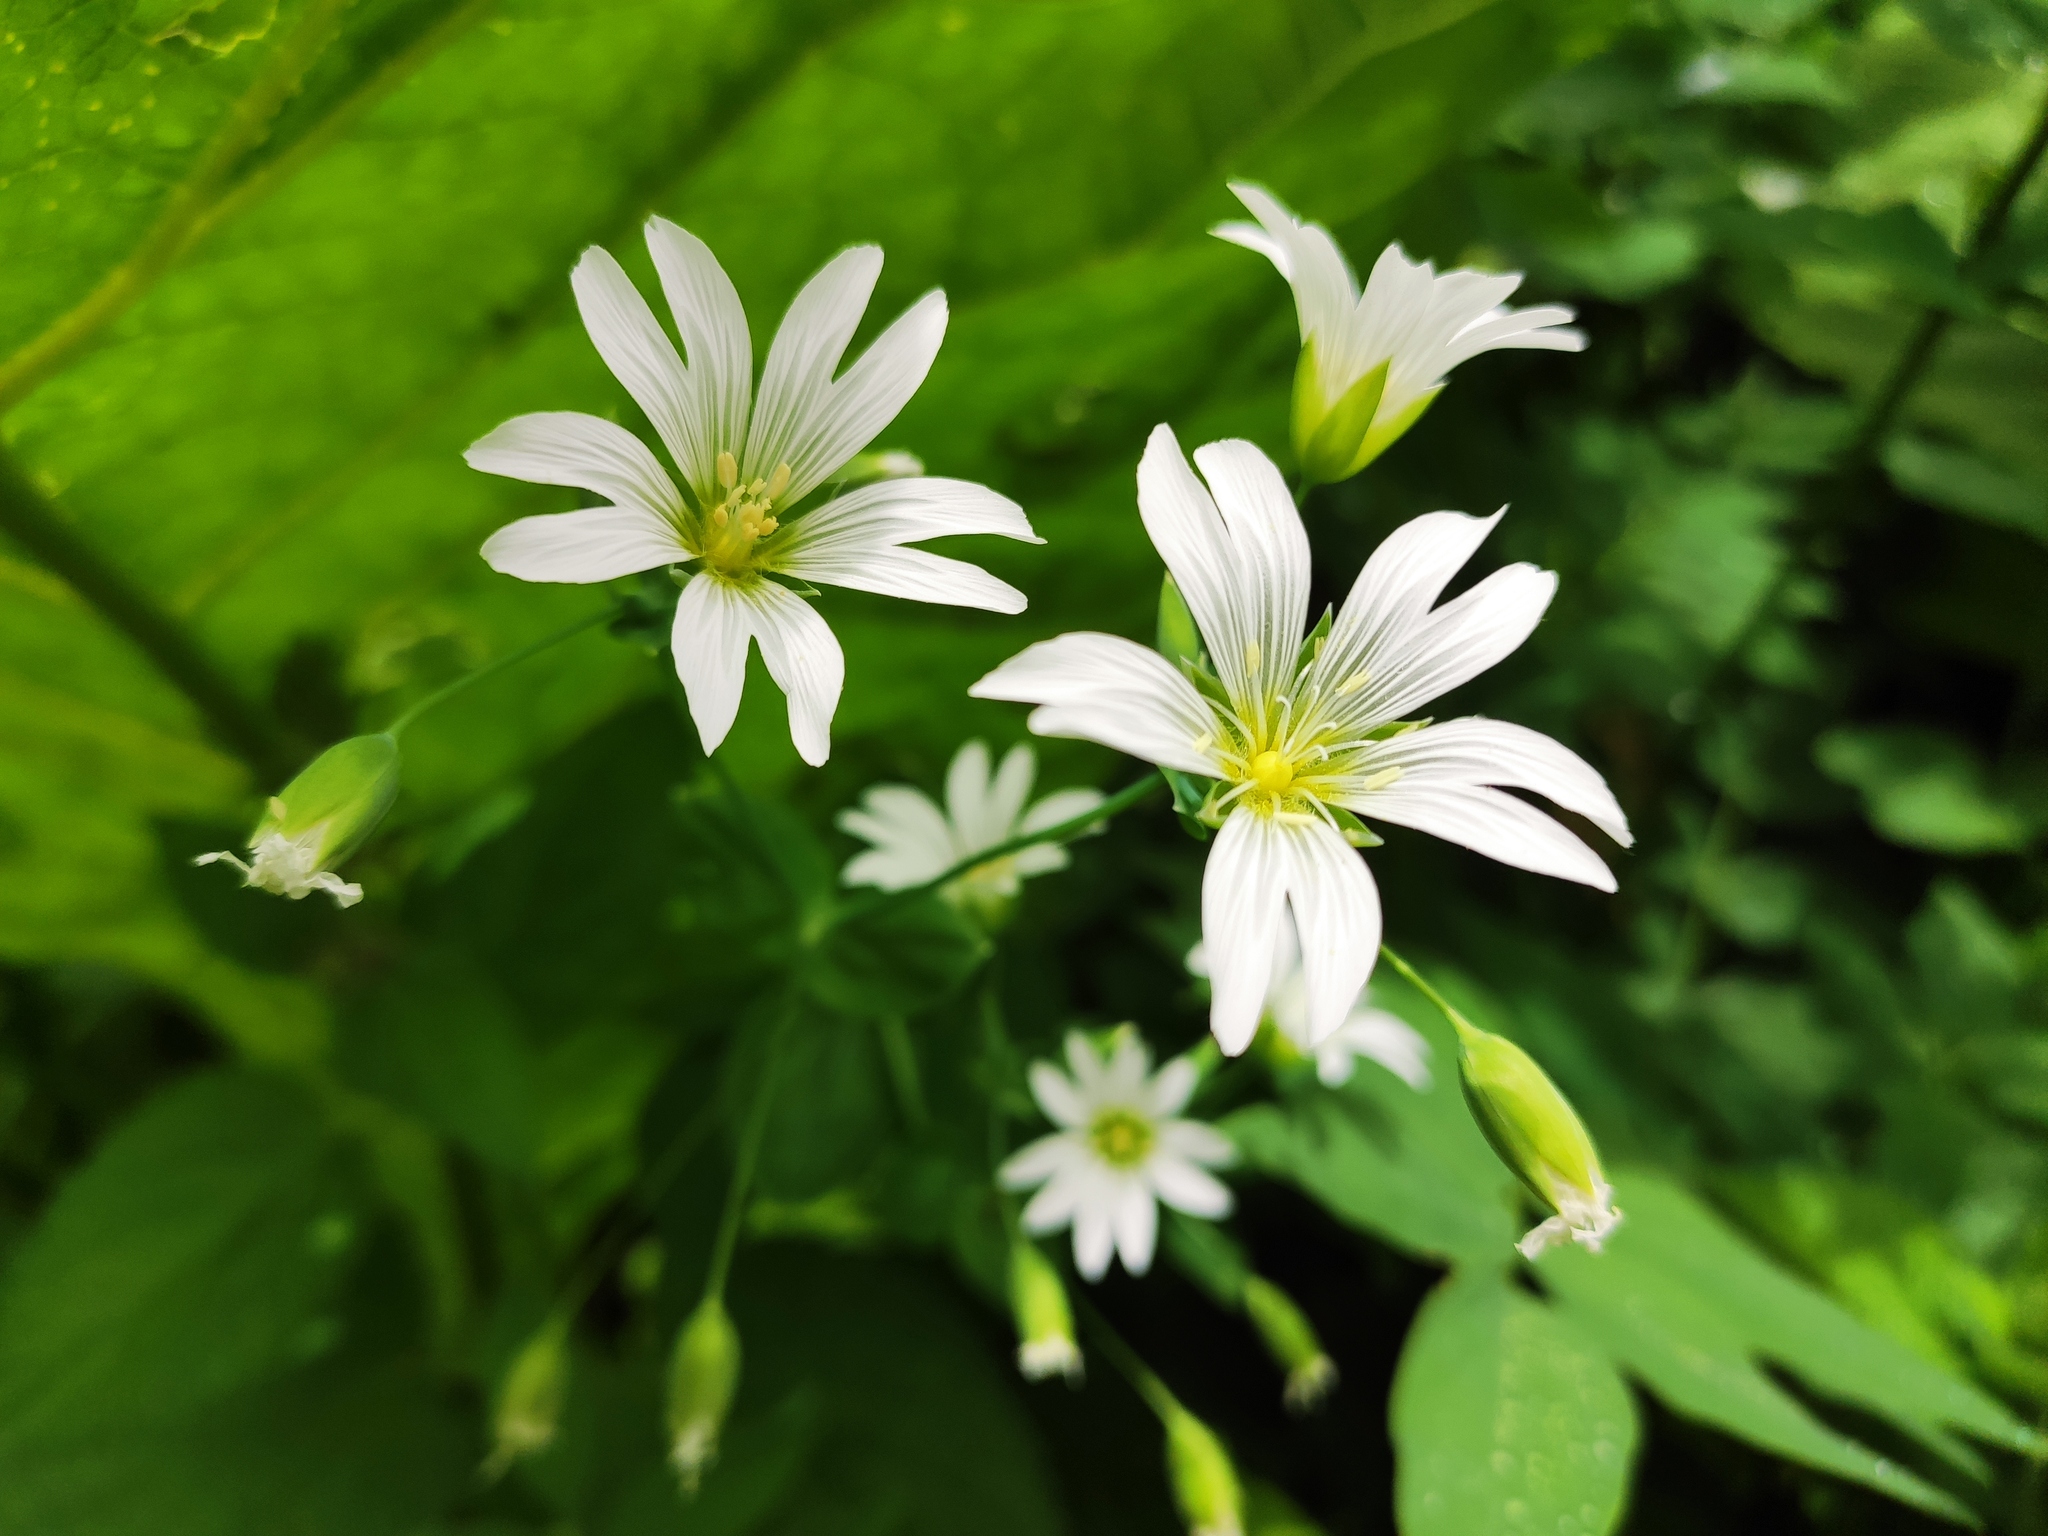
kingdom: Plantae
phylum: Tracheophyta
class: Magnoliopsida
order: Caryophyllales
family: Caryophyllaceae
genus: Cerastium
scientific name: Cerastium davuricum
